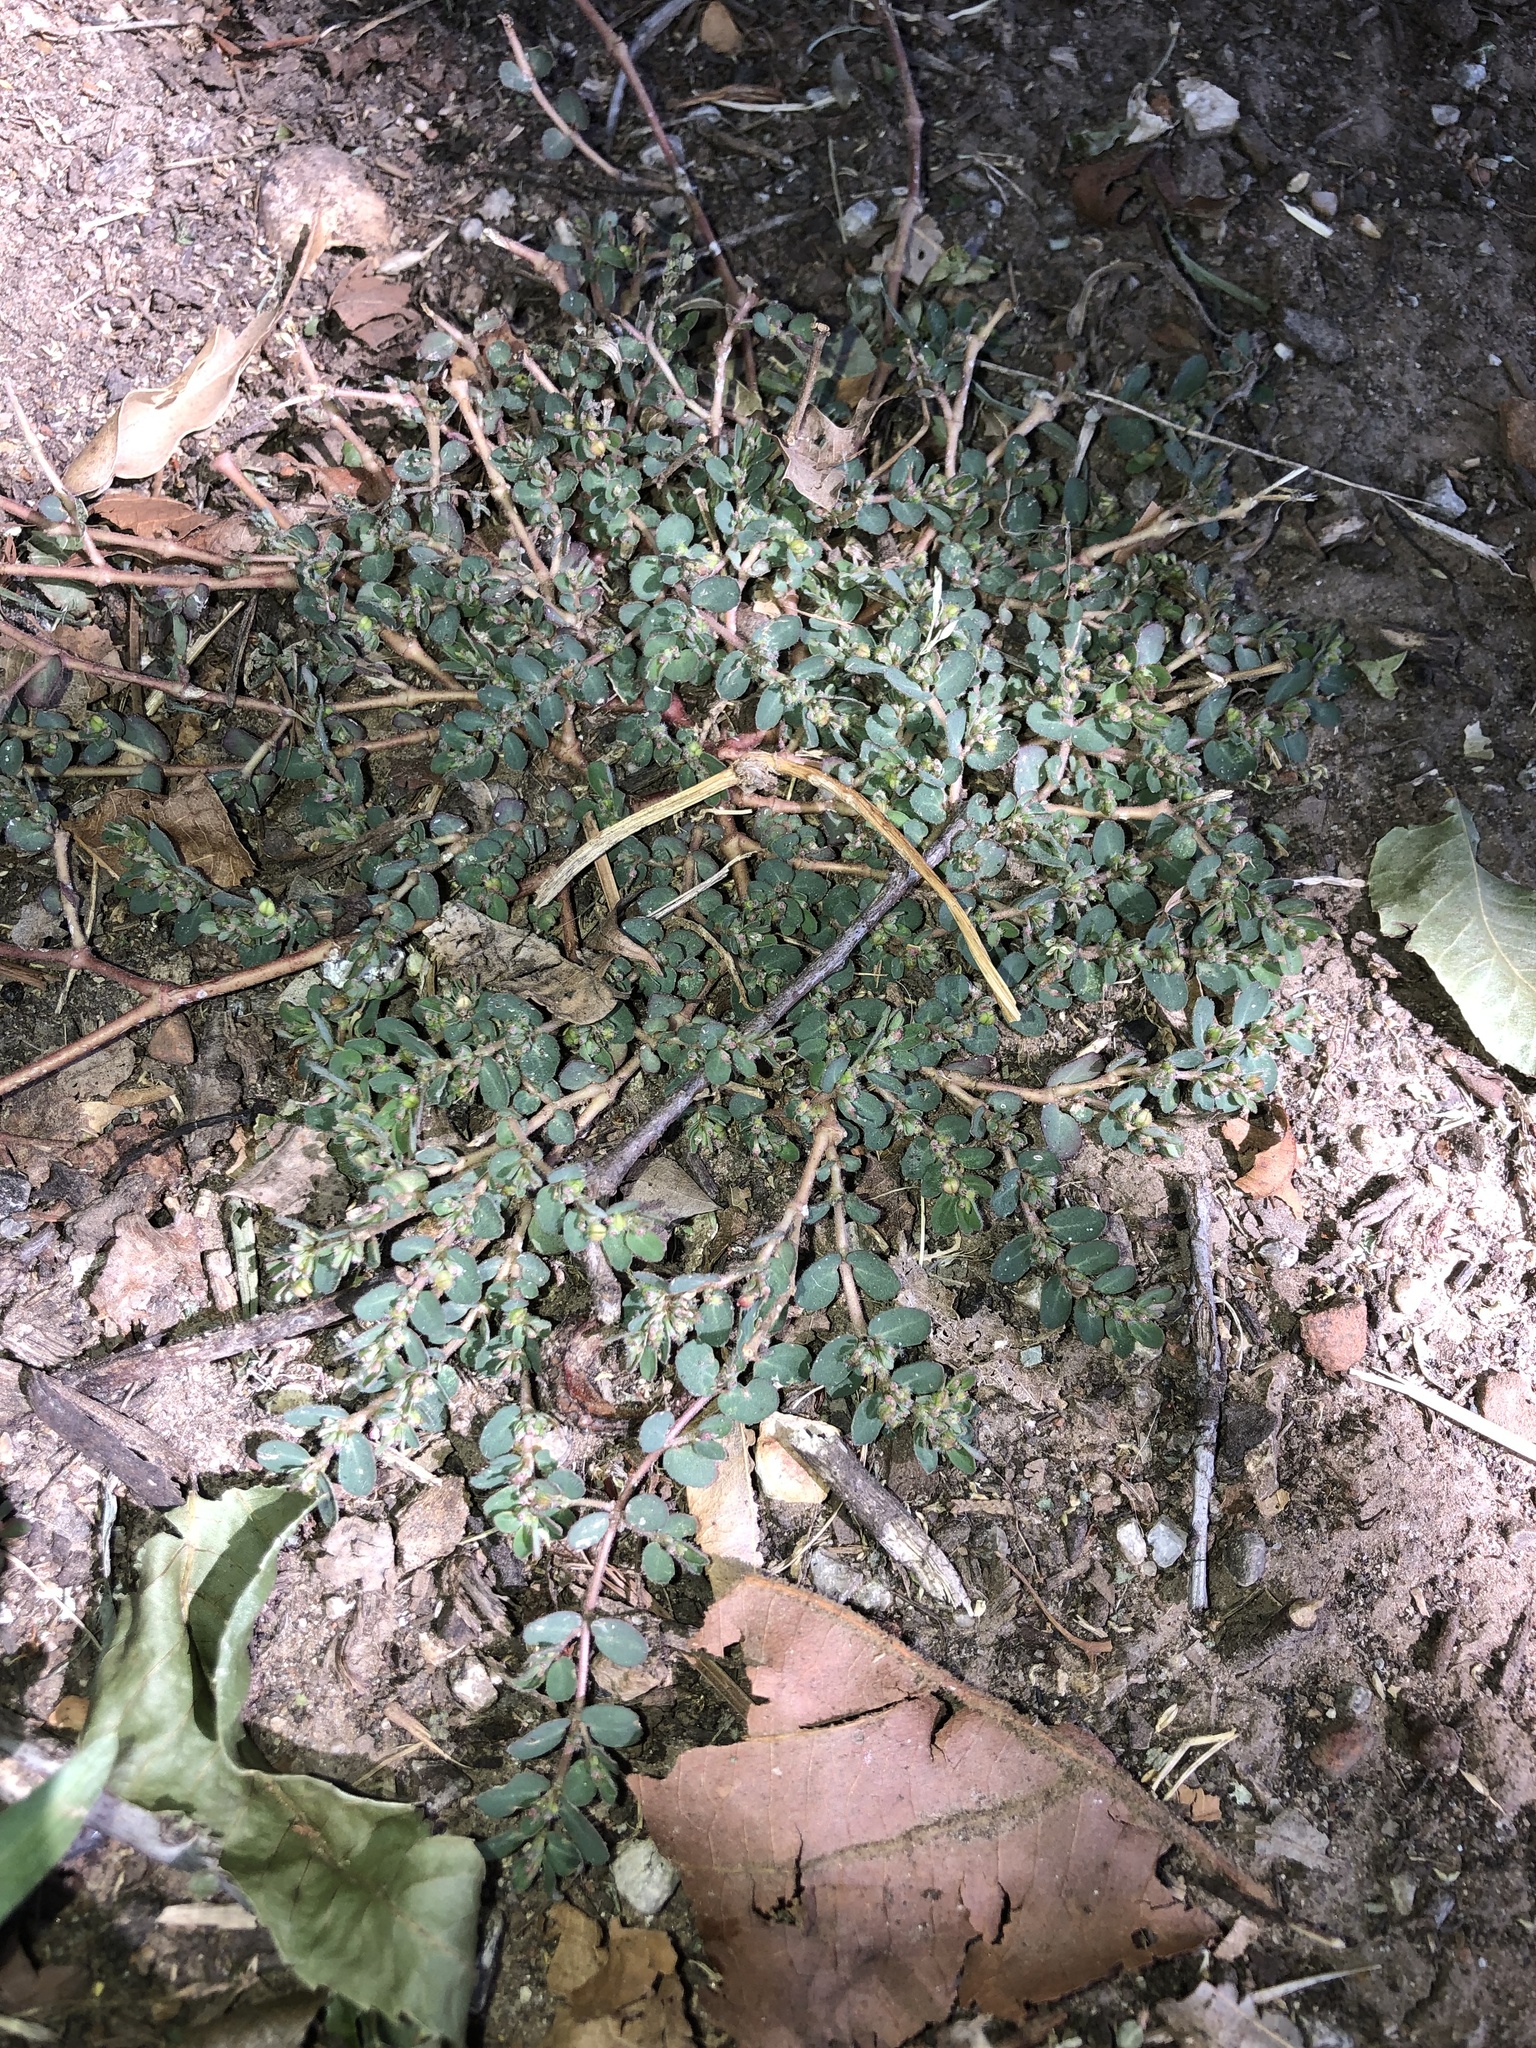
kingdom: Plantae
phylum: Tracheophyta
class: Magnoliopsida
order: Malpighiales
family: Euphorbiaceae
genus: Euphorbia
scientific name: Euphorbia prostrata
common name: Prostrate sandmat
